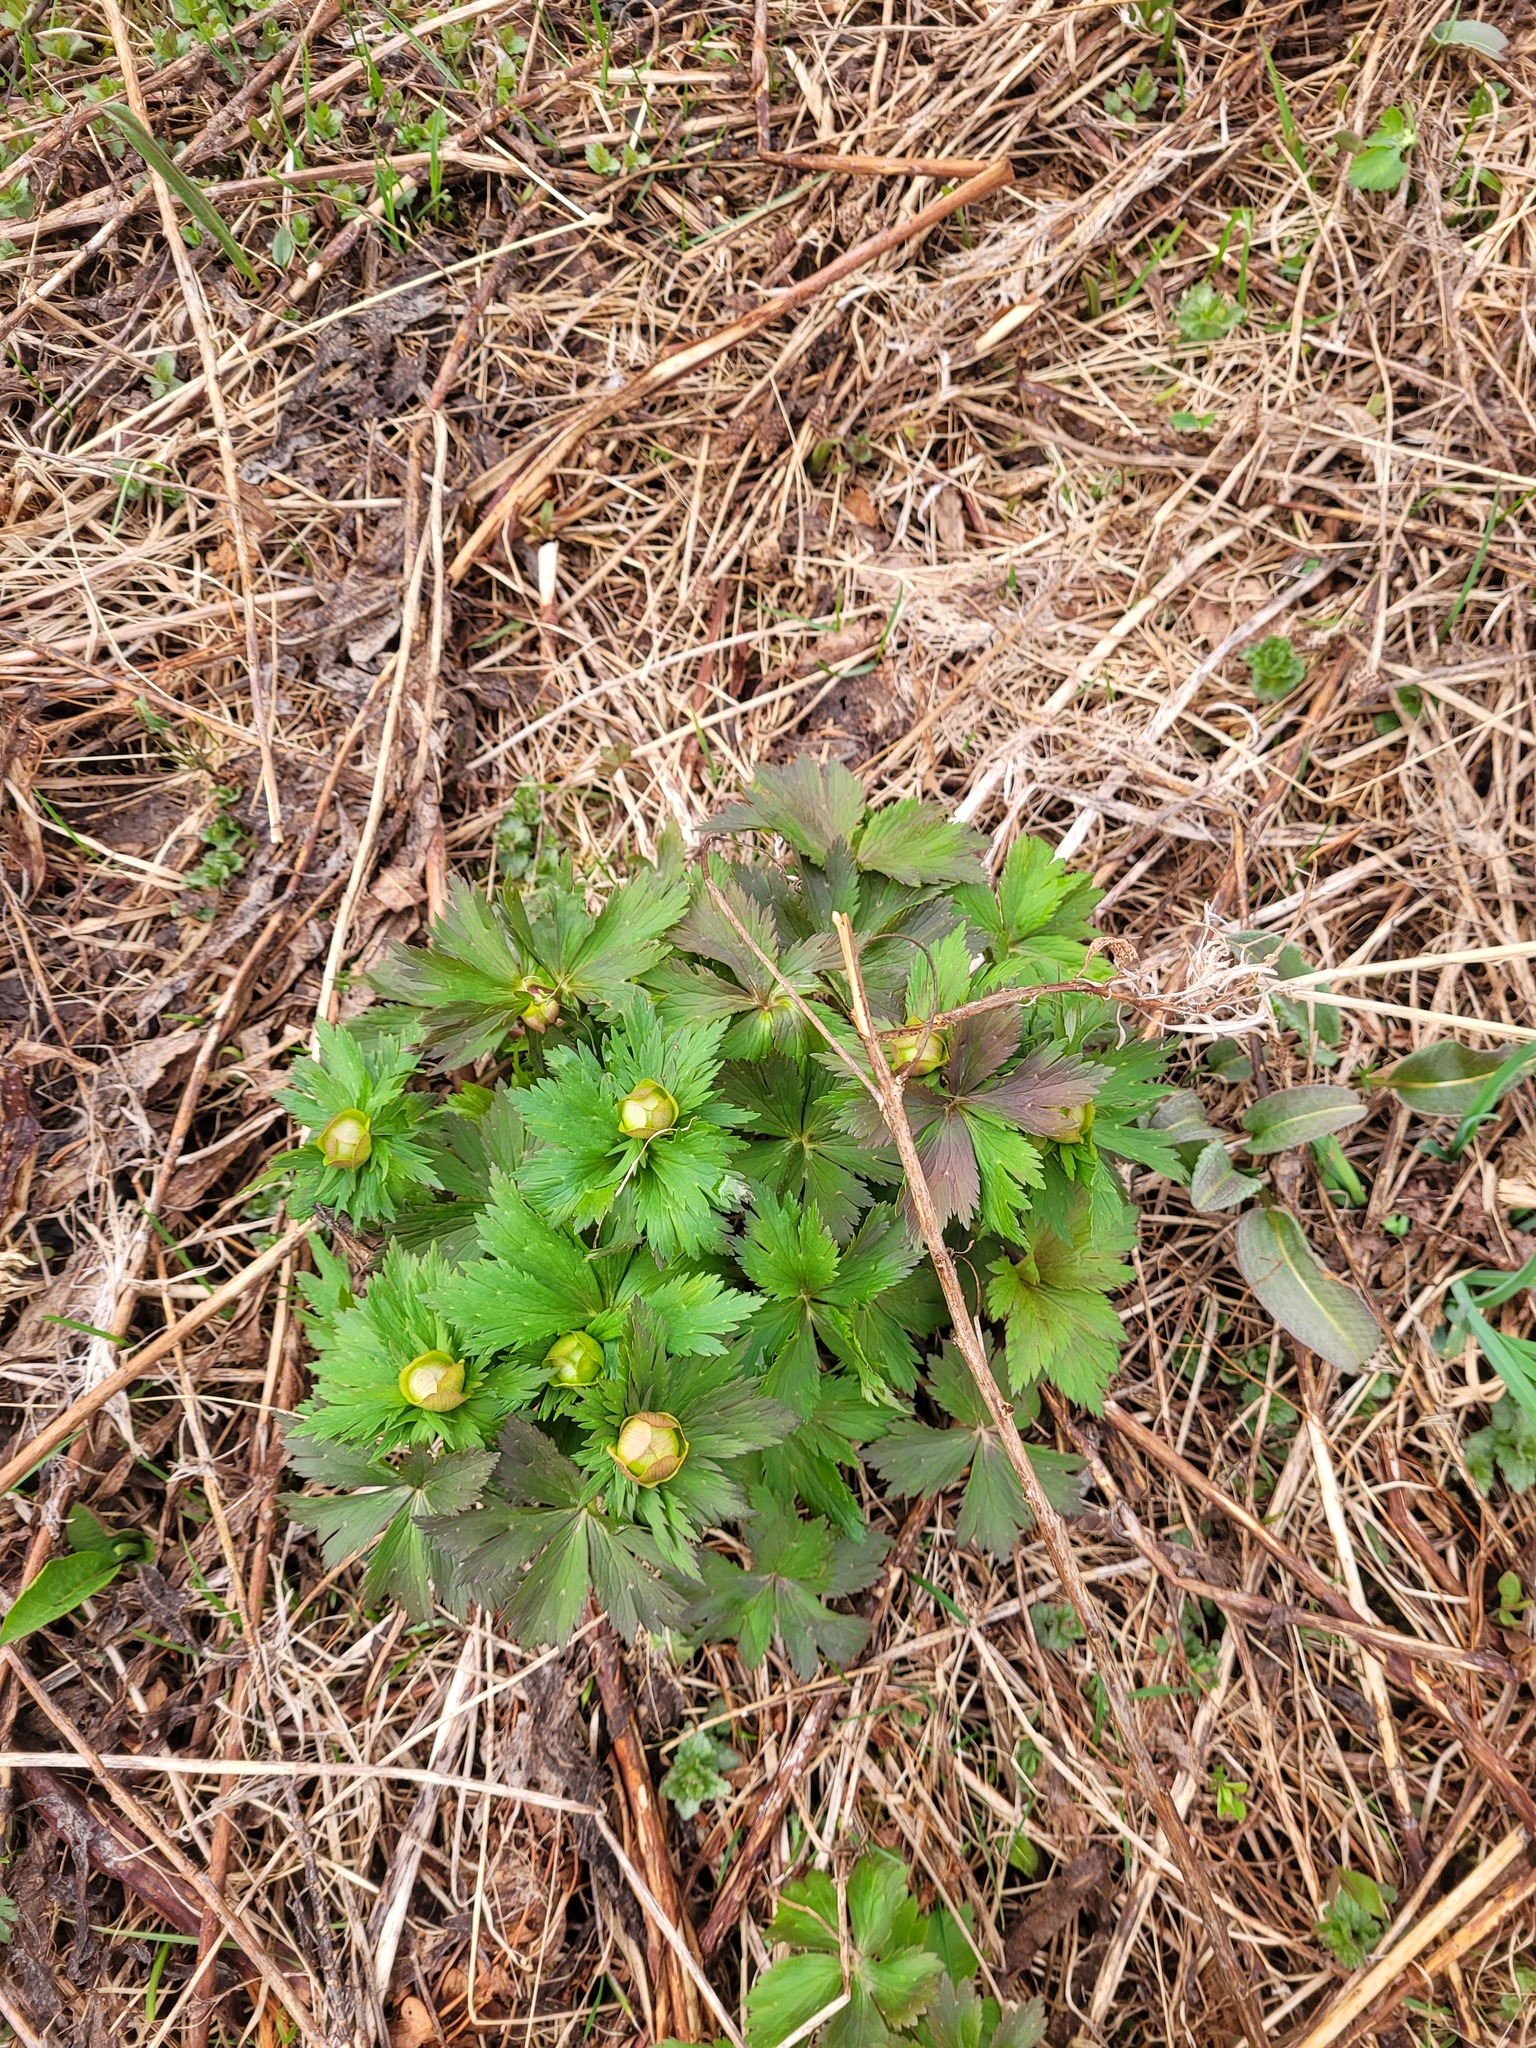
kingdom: Plantae
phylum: Tracheophyta
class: Magnoliopsida
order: Ranunculales
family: Ranunculaceae
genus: Trollius
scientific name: Trollius europaeus
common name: European globeflower
